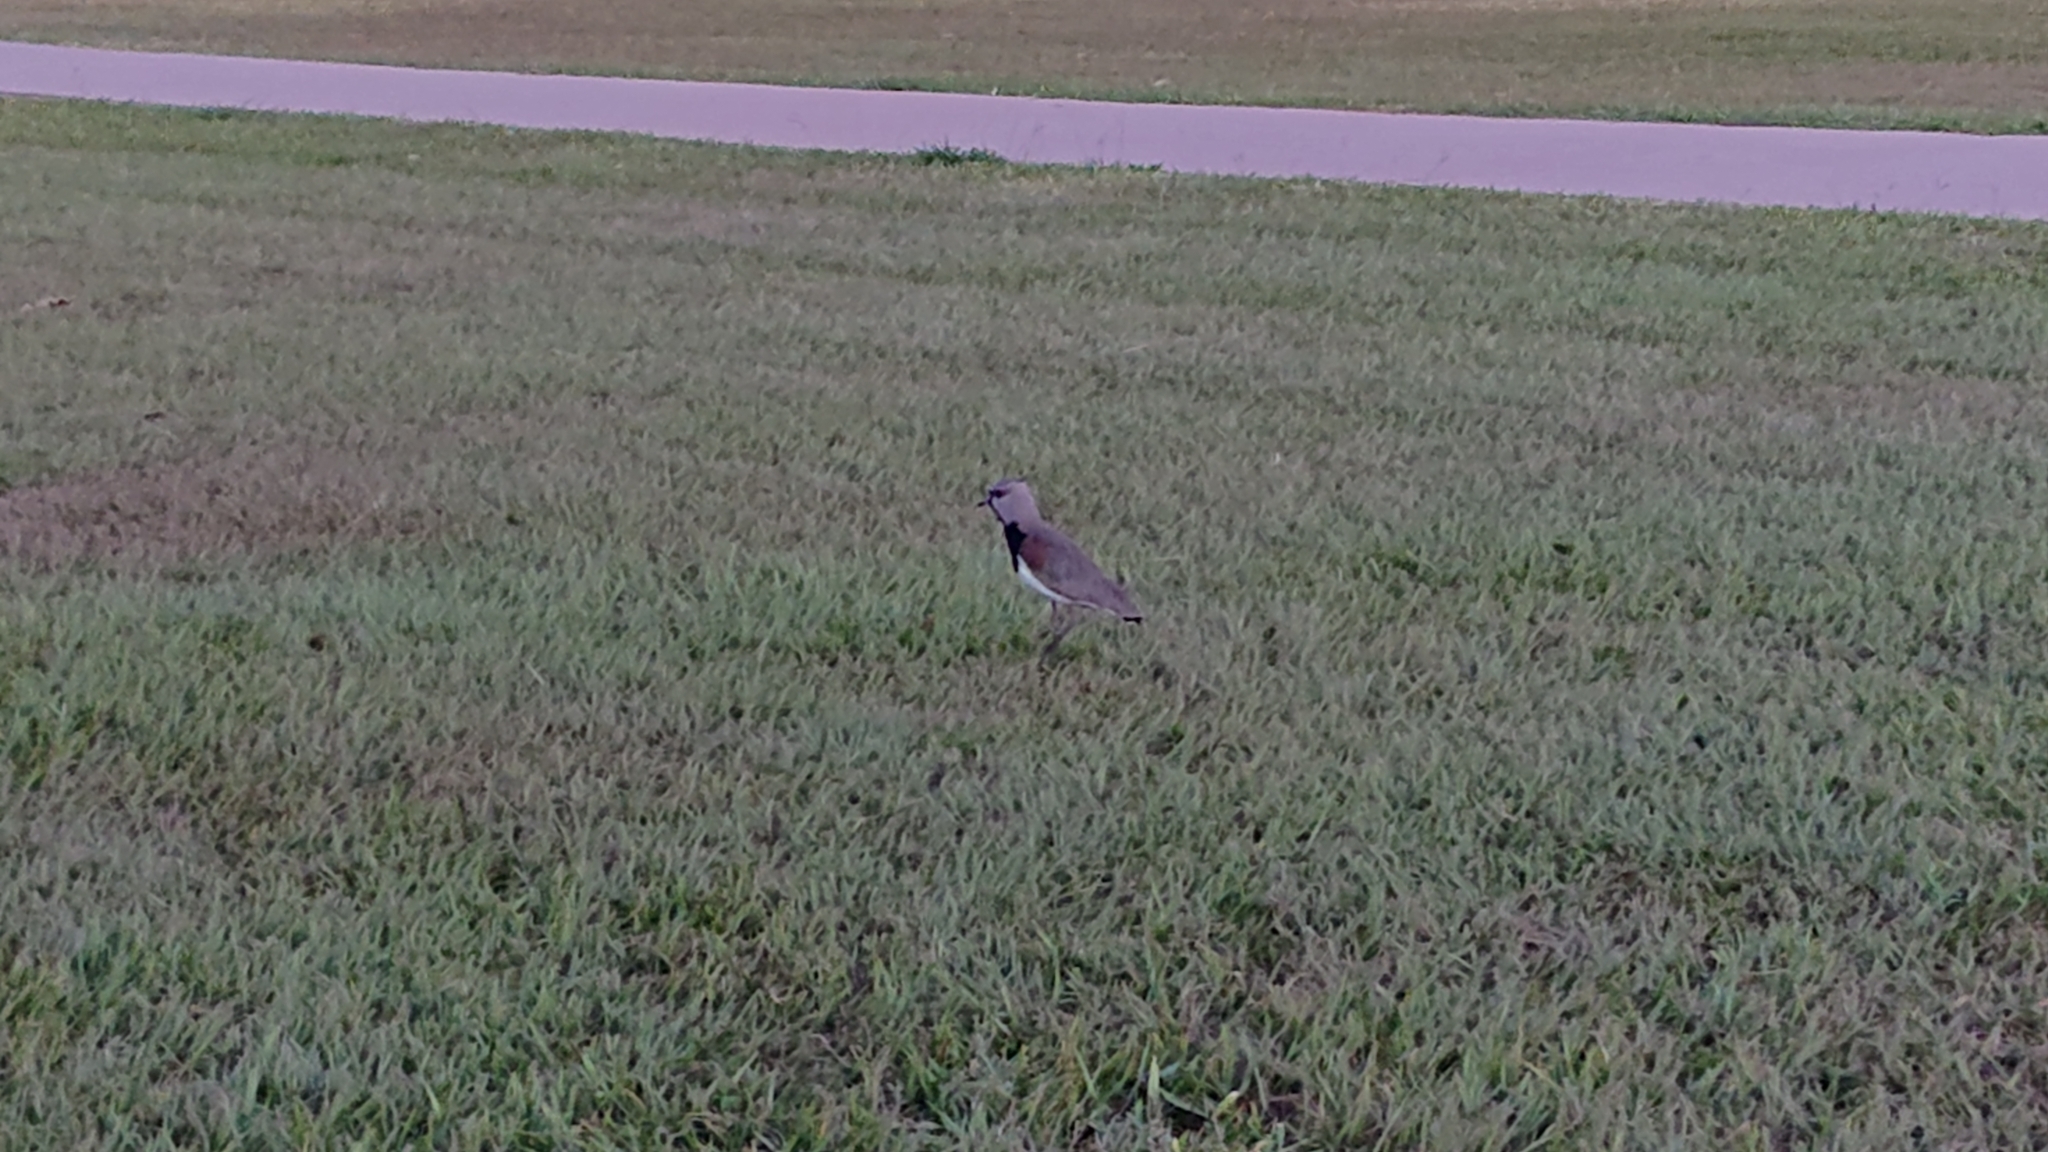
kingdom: Animalia
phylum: Chordata
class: Aves
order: Charadriiformes
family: Charadriidae
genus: Vanellus
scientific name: Vanellus chilensis
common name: Southern lapwing
